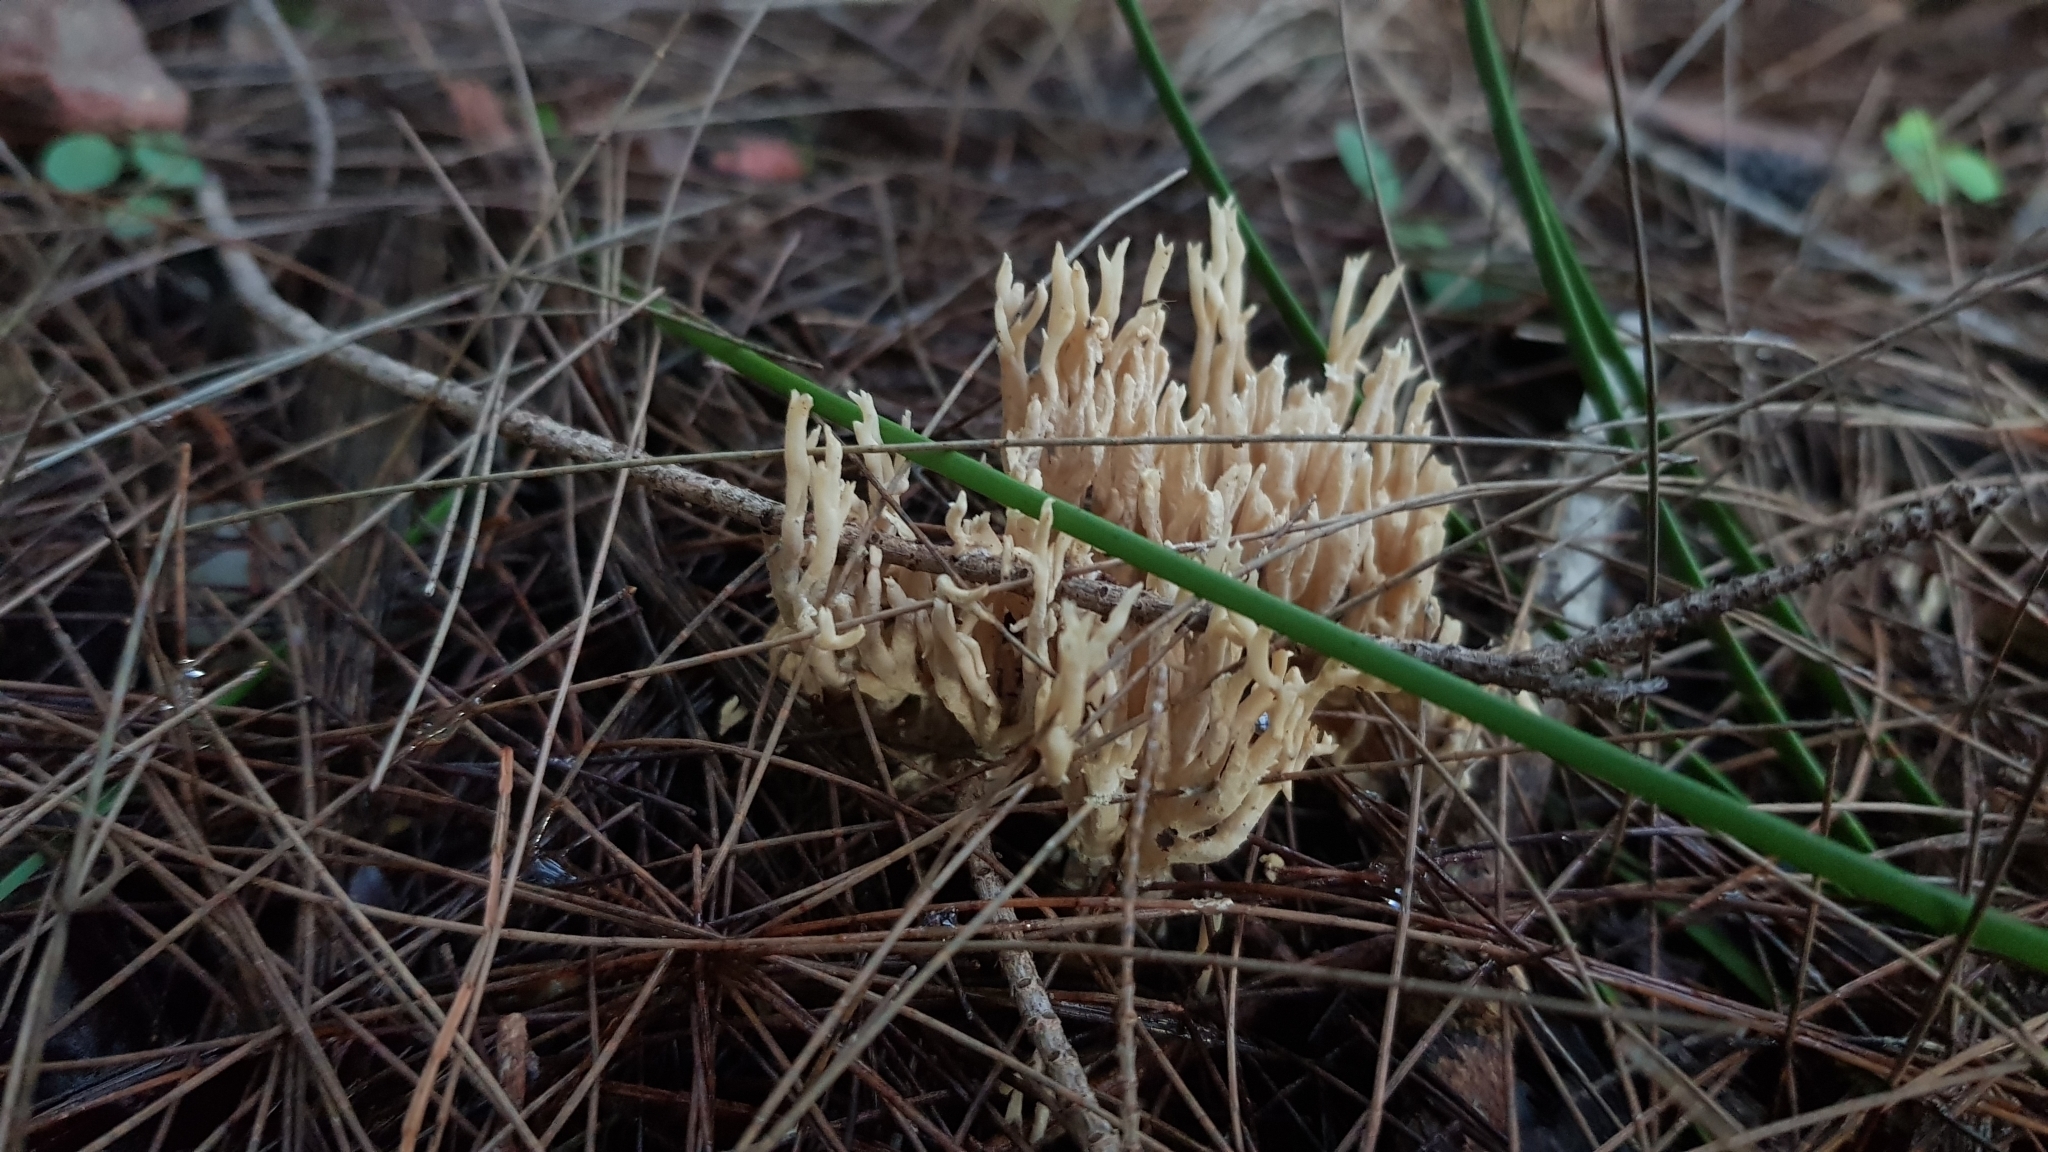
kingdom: Fungi
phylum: Basidiomycota
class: Agaricomycetes
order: Gomphales
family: Gomphaceae
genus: Ramaria
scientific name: Ramaria filicicola
